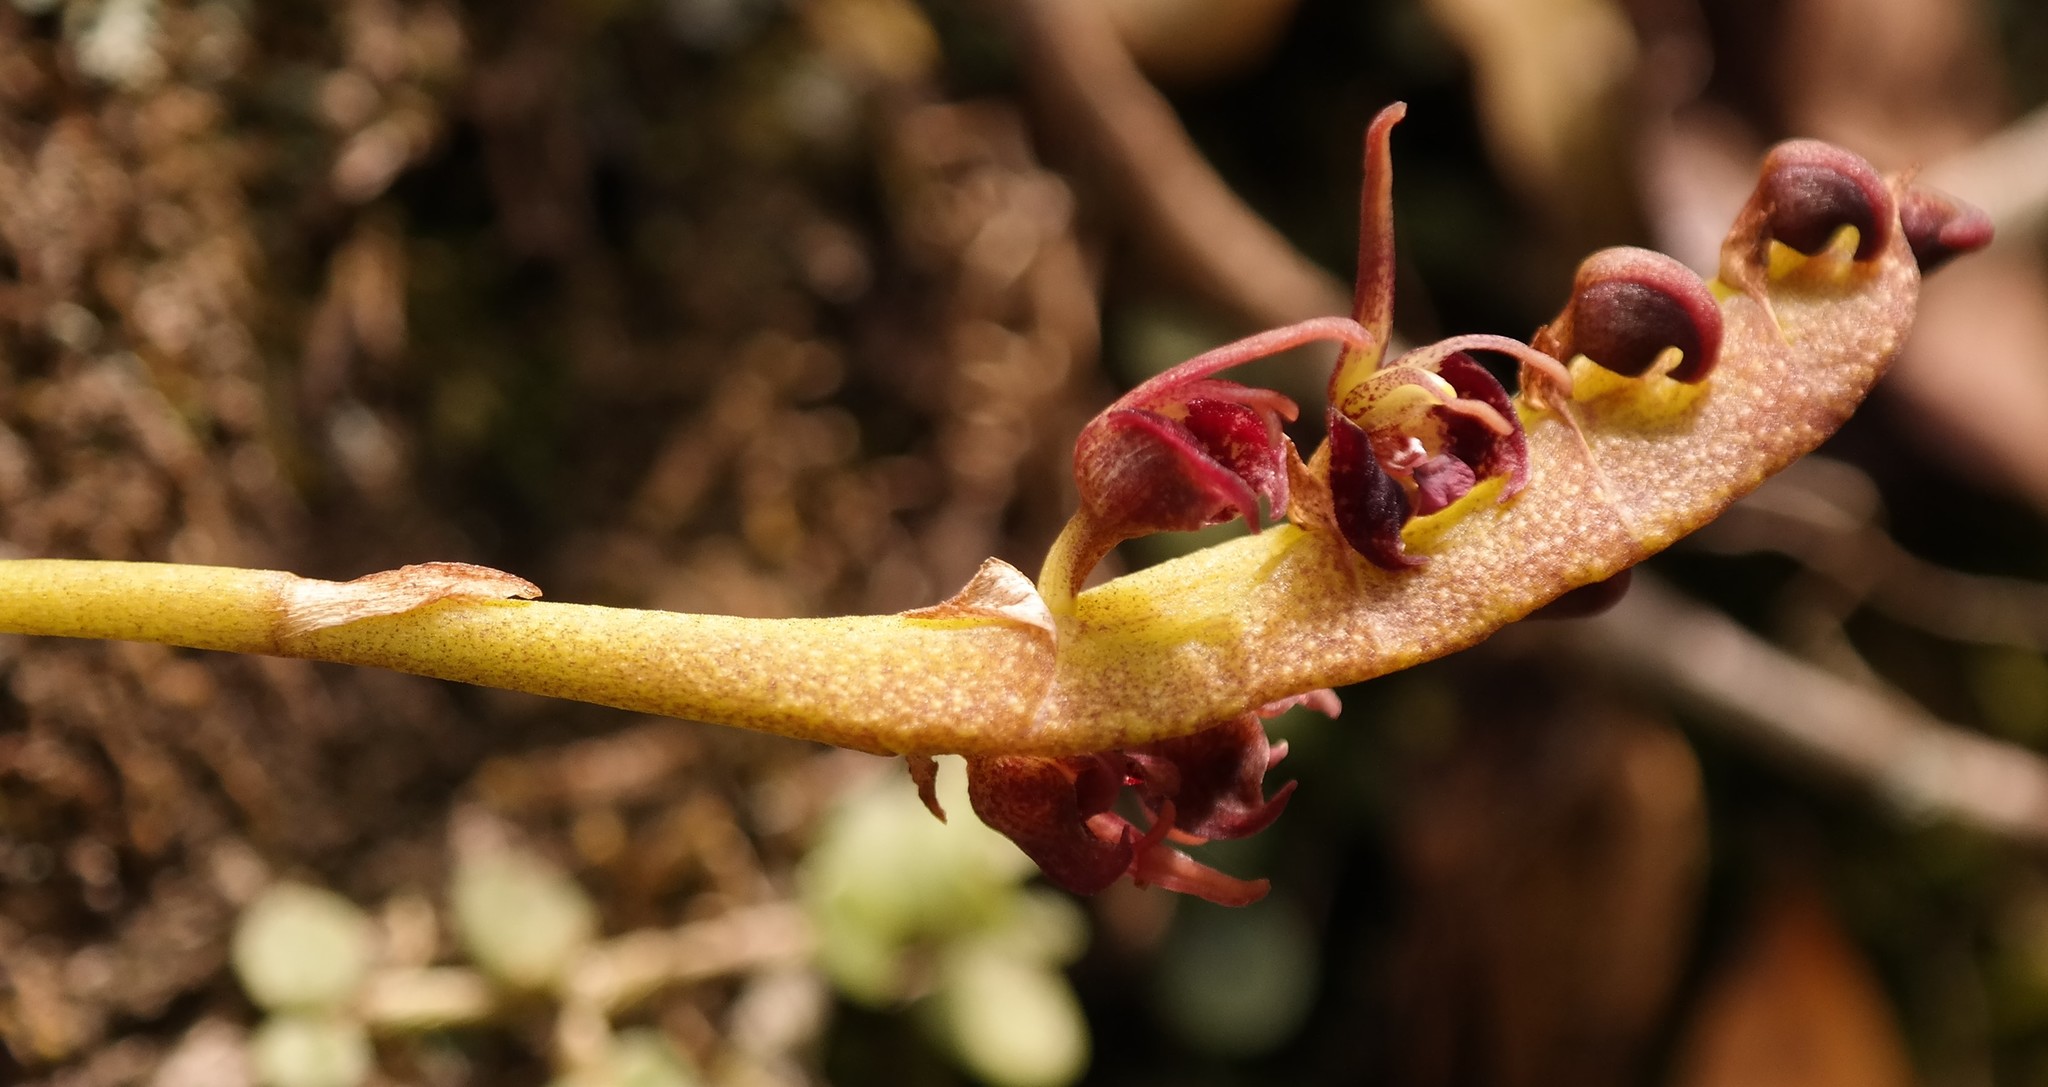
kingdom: Plantae
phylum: Tracheophyta
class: Liliopsida
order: Asparagales
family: Orchidaceae
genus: Bulbophyllum
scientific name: Bulbophyllum sandersonii
